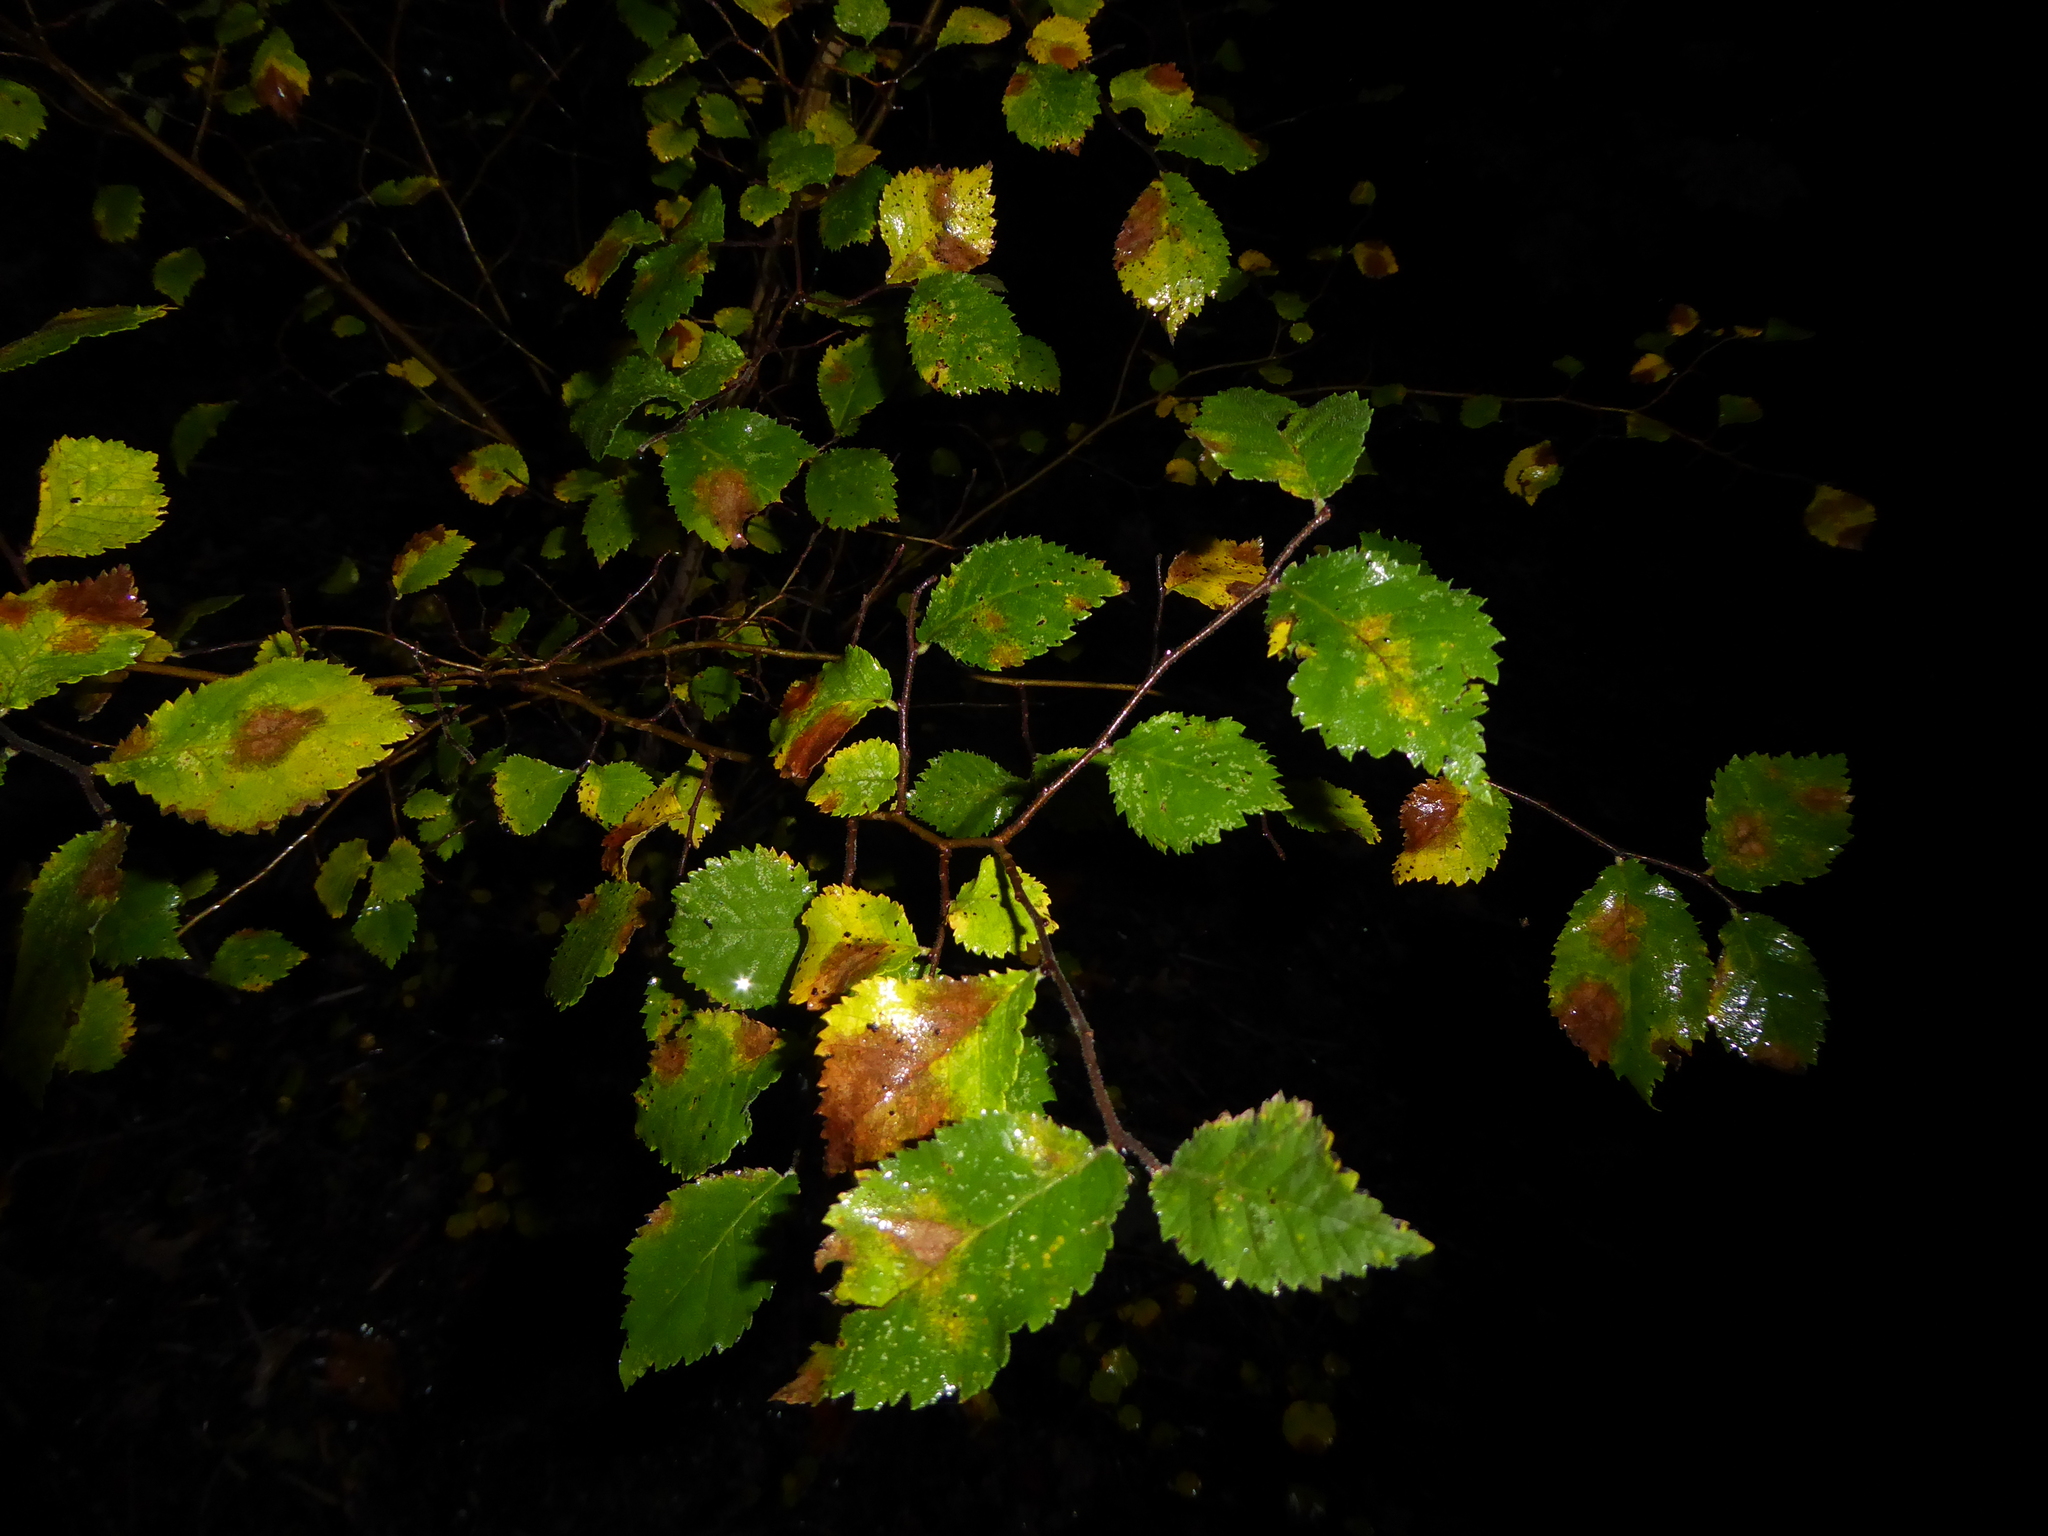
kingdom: Plantae
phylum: Tracheophyta
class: Magnoliopsida
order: Rosales
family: Ulmaceae
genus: Ulmus
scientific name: Ulmus
